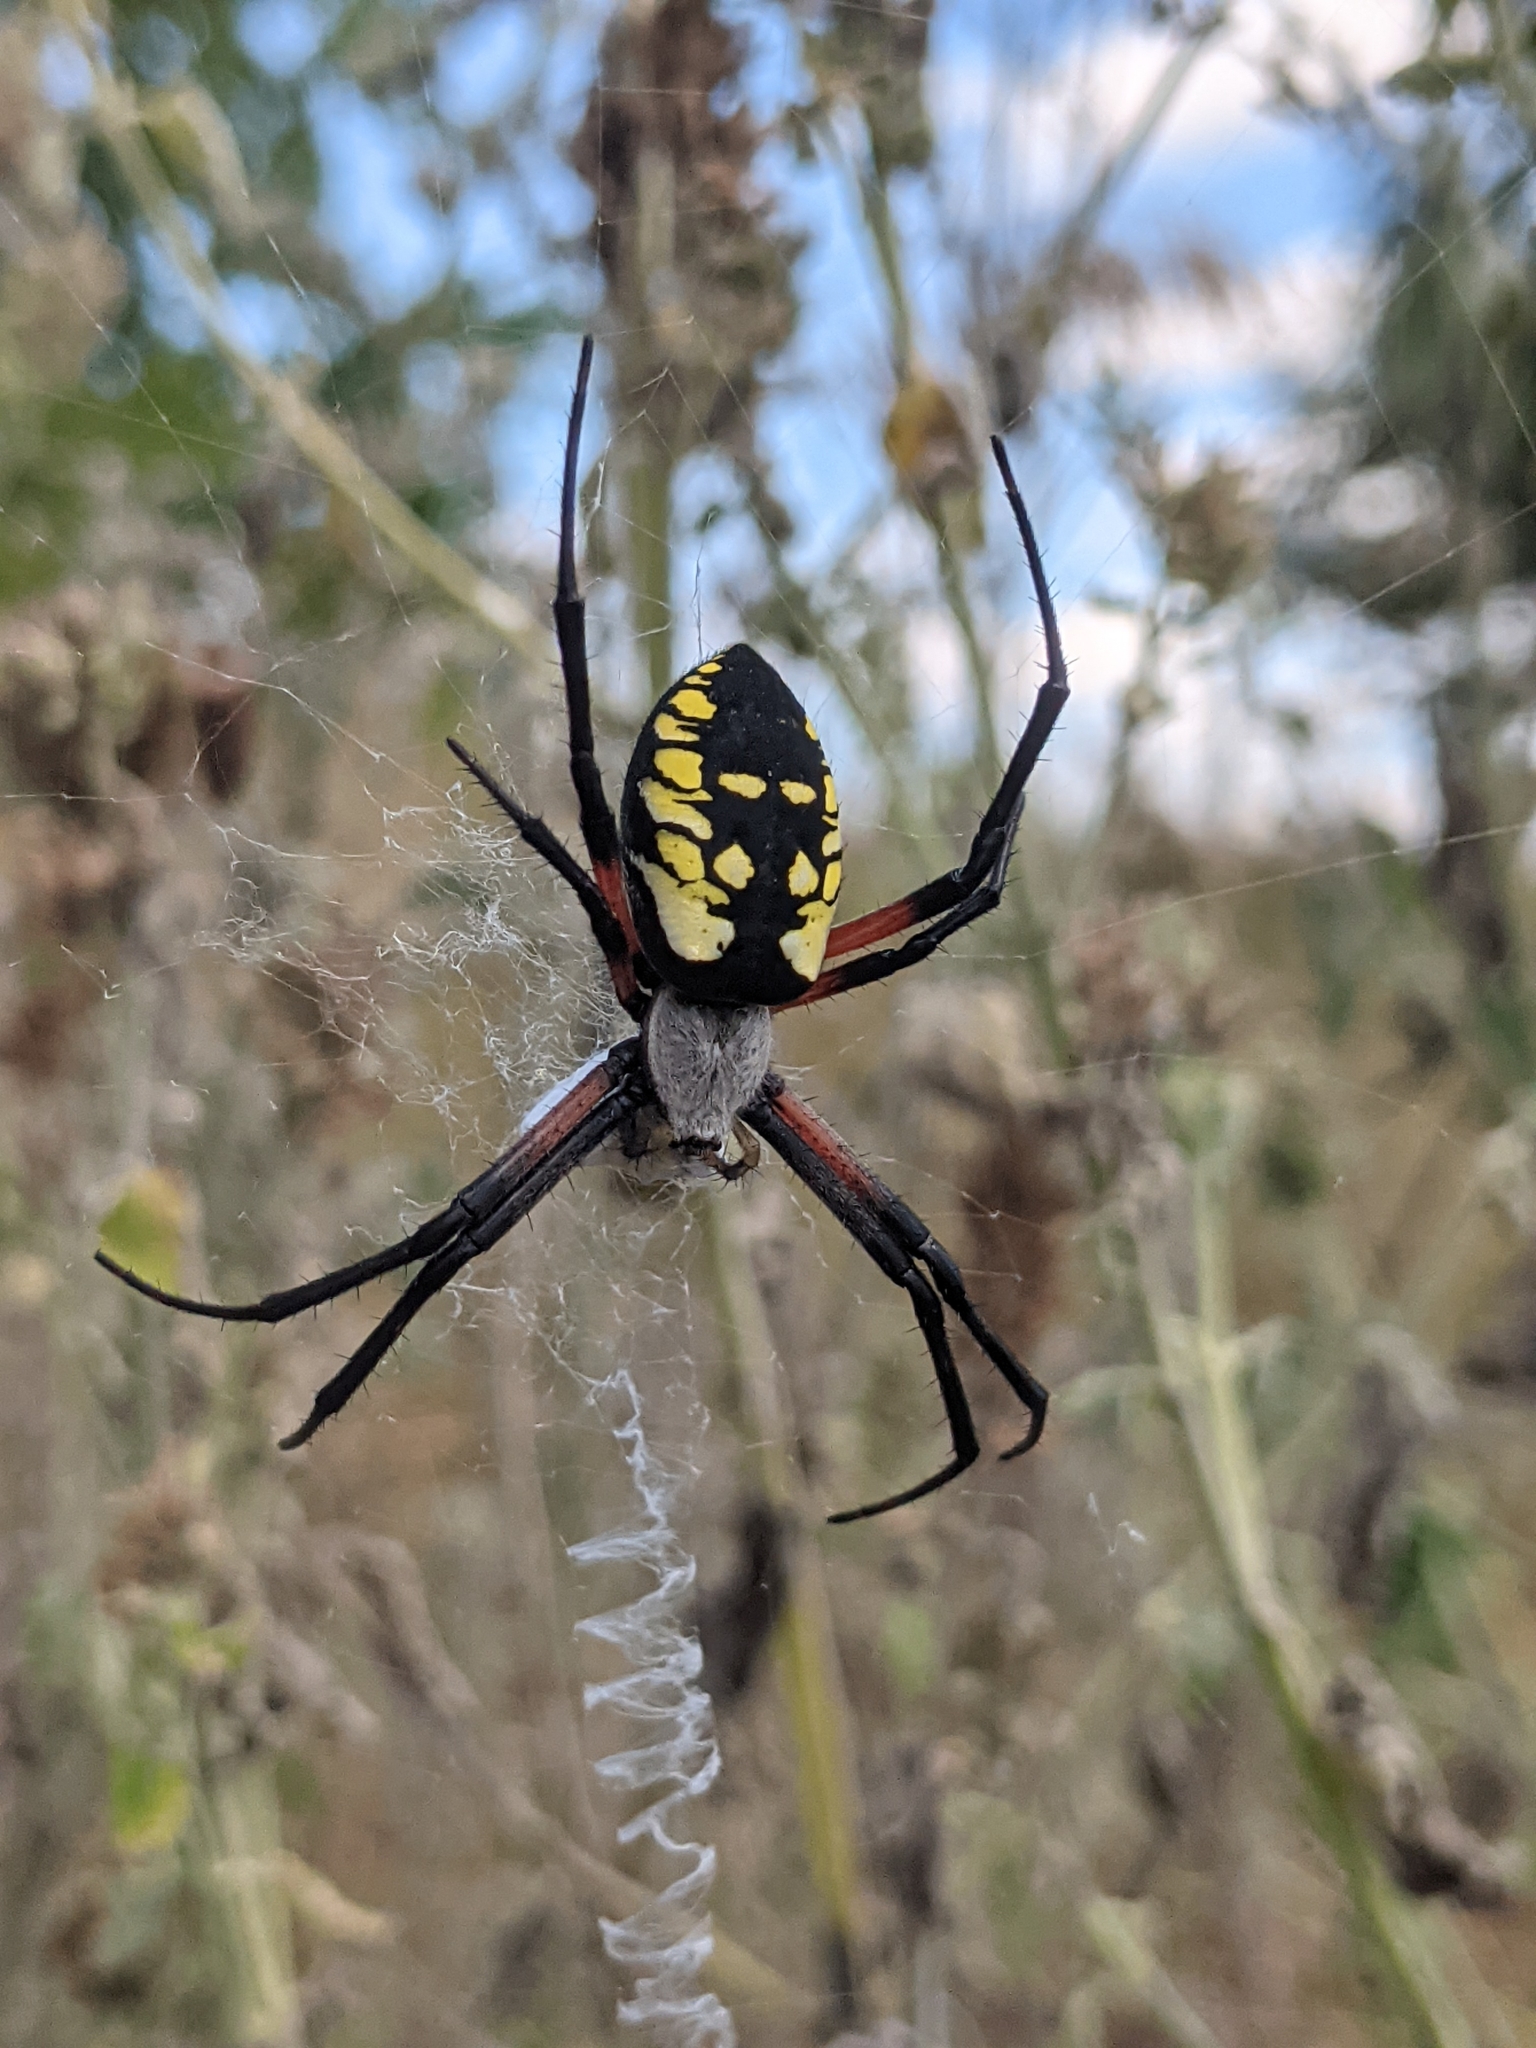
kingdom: Animalia
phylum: Arthropoda
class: Arachnida
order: Araneae
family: Araneidae
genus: Argiope
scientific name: Argiope aurantia
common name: Orb weavers
